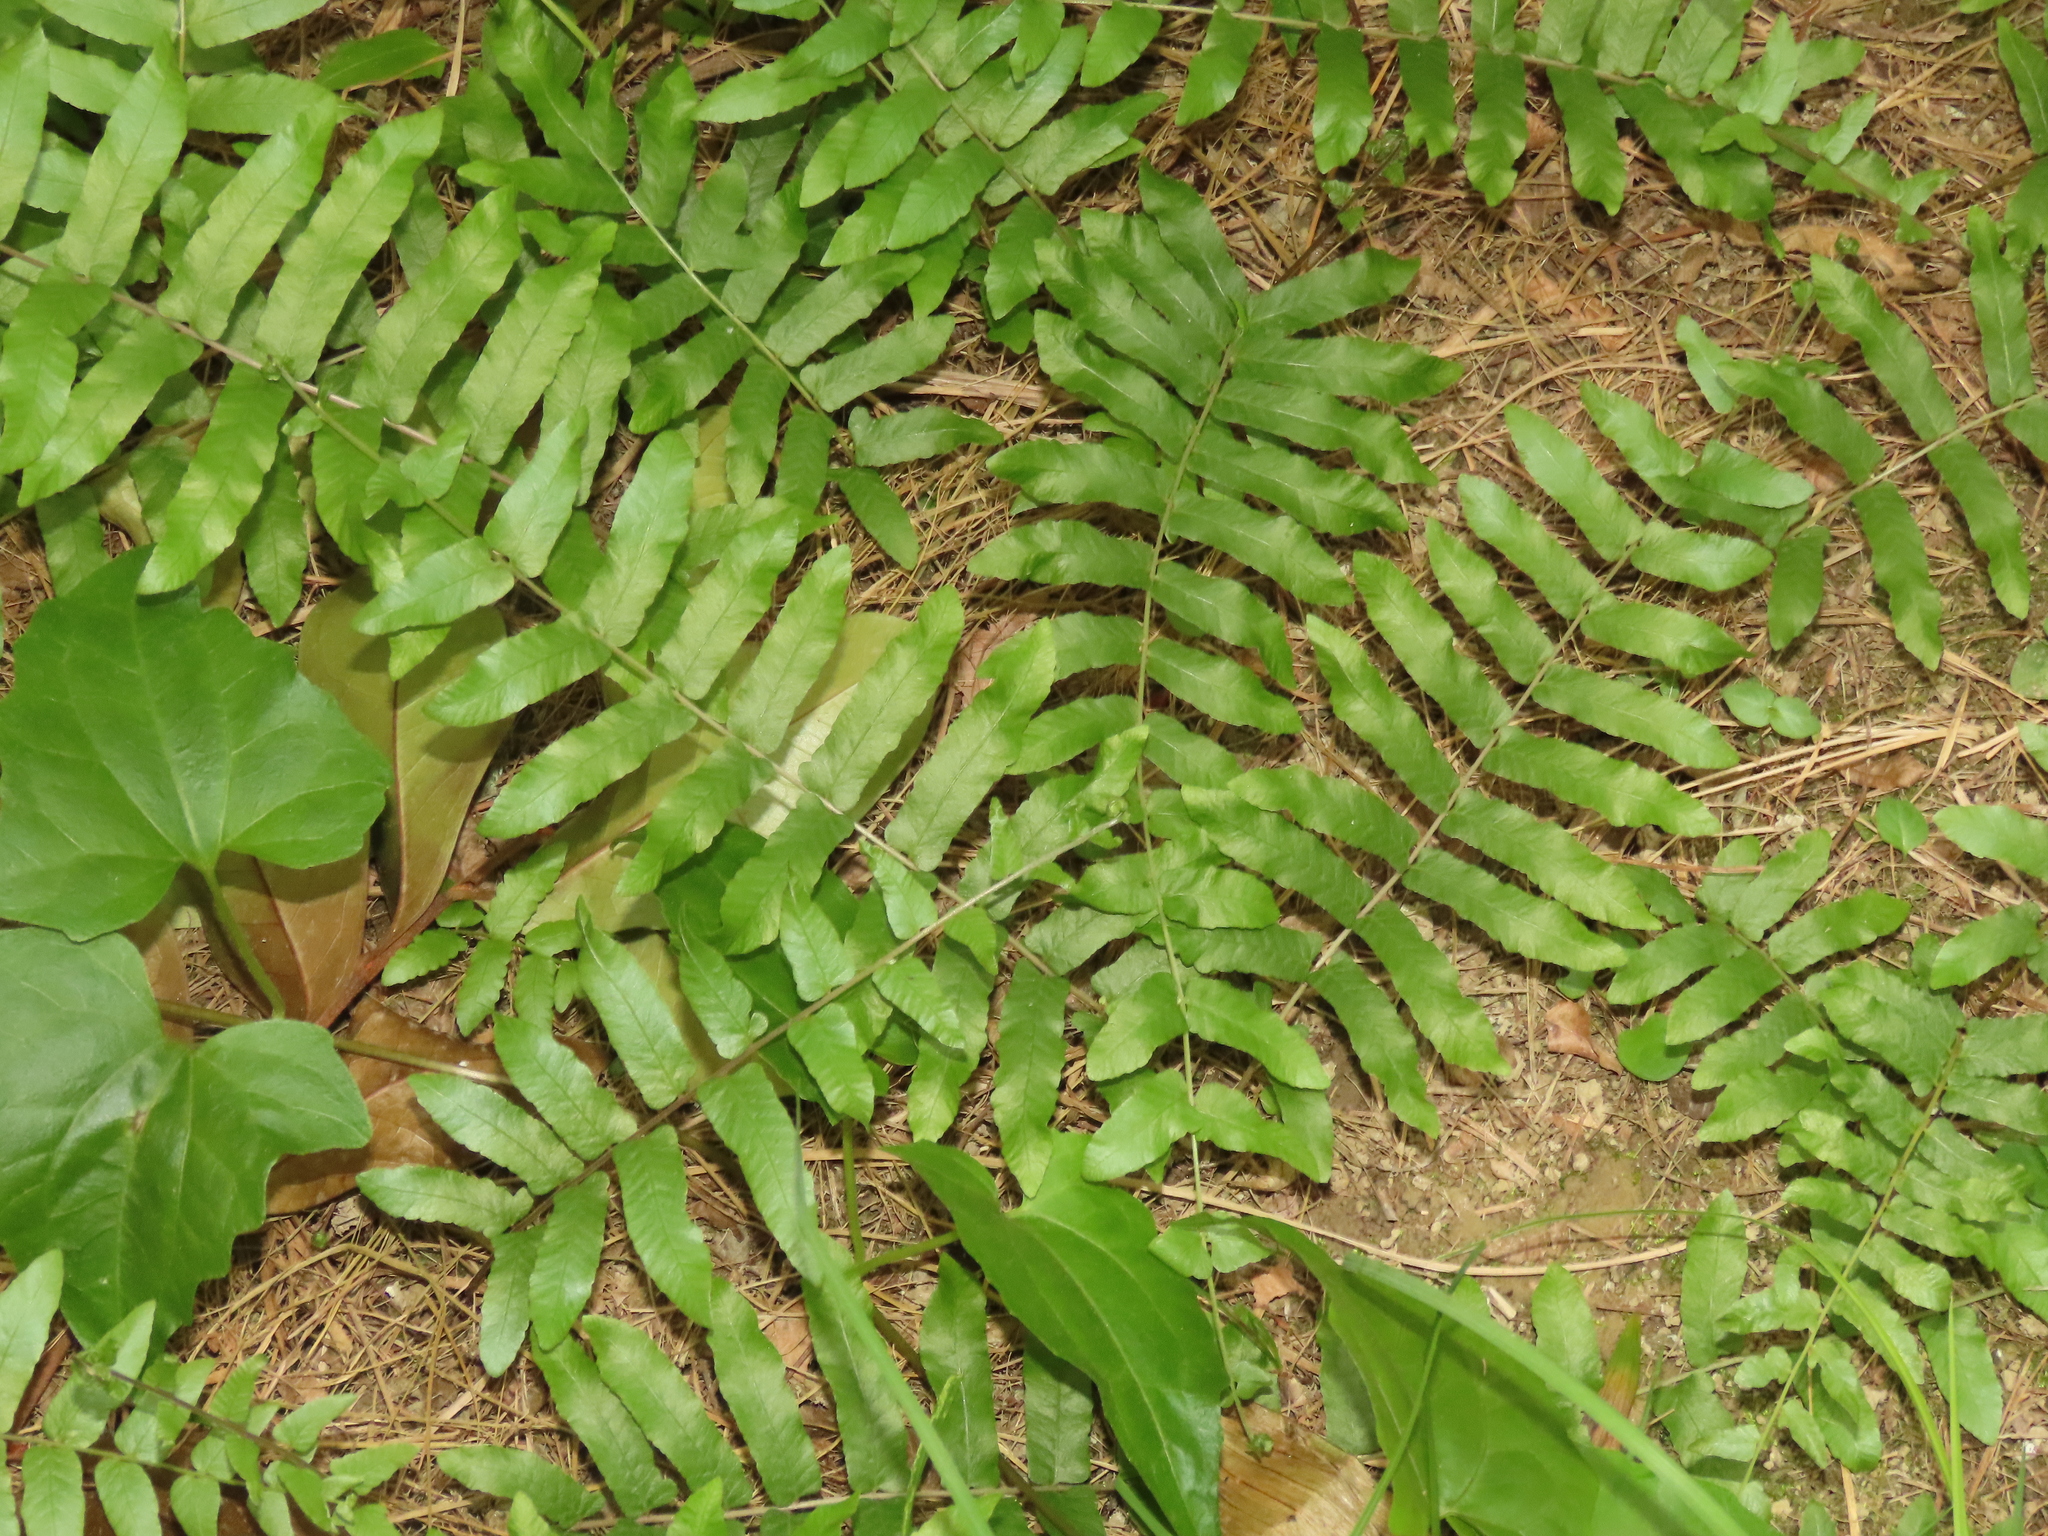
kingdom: Plantae
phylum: Tracheophyta
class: Polypodiopsida
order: Polypodiales
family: Thelypteridaceae
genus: Ampelopteris
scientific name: Ampelopteris prolifera
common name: Riverine scrambler
